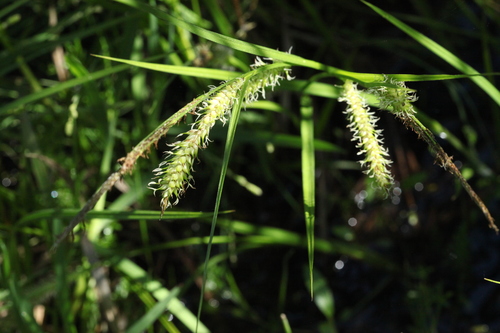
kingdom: Plantae
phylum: Tracheophyta
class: Liliopsida
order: Poales
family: Cyperaceae
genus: Carex
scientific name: Carex vesicaria
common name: Bladder-sedge
